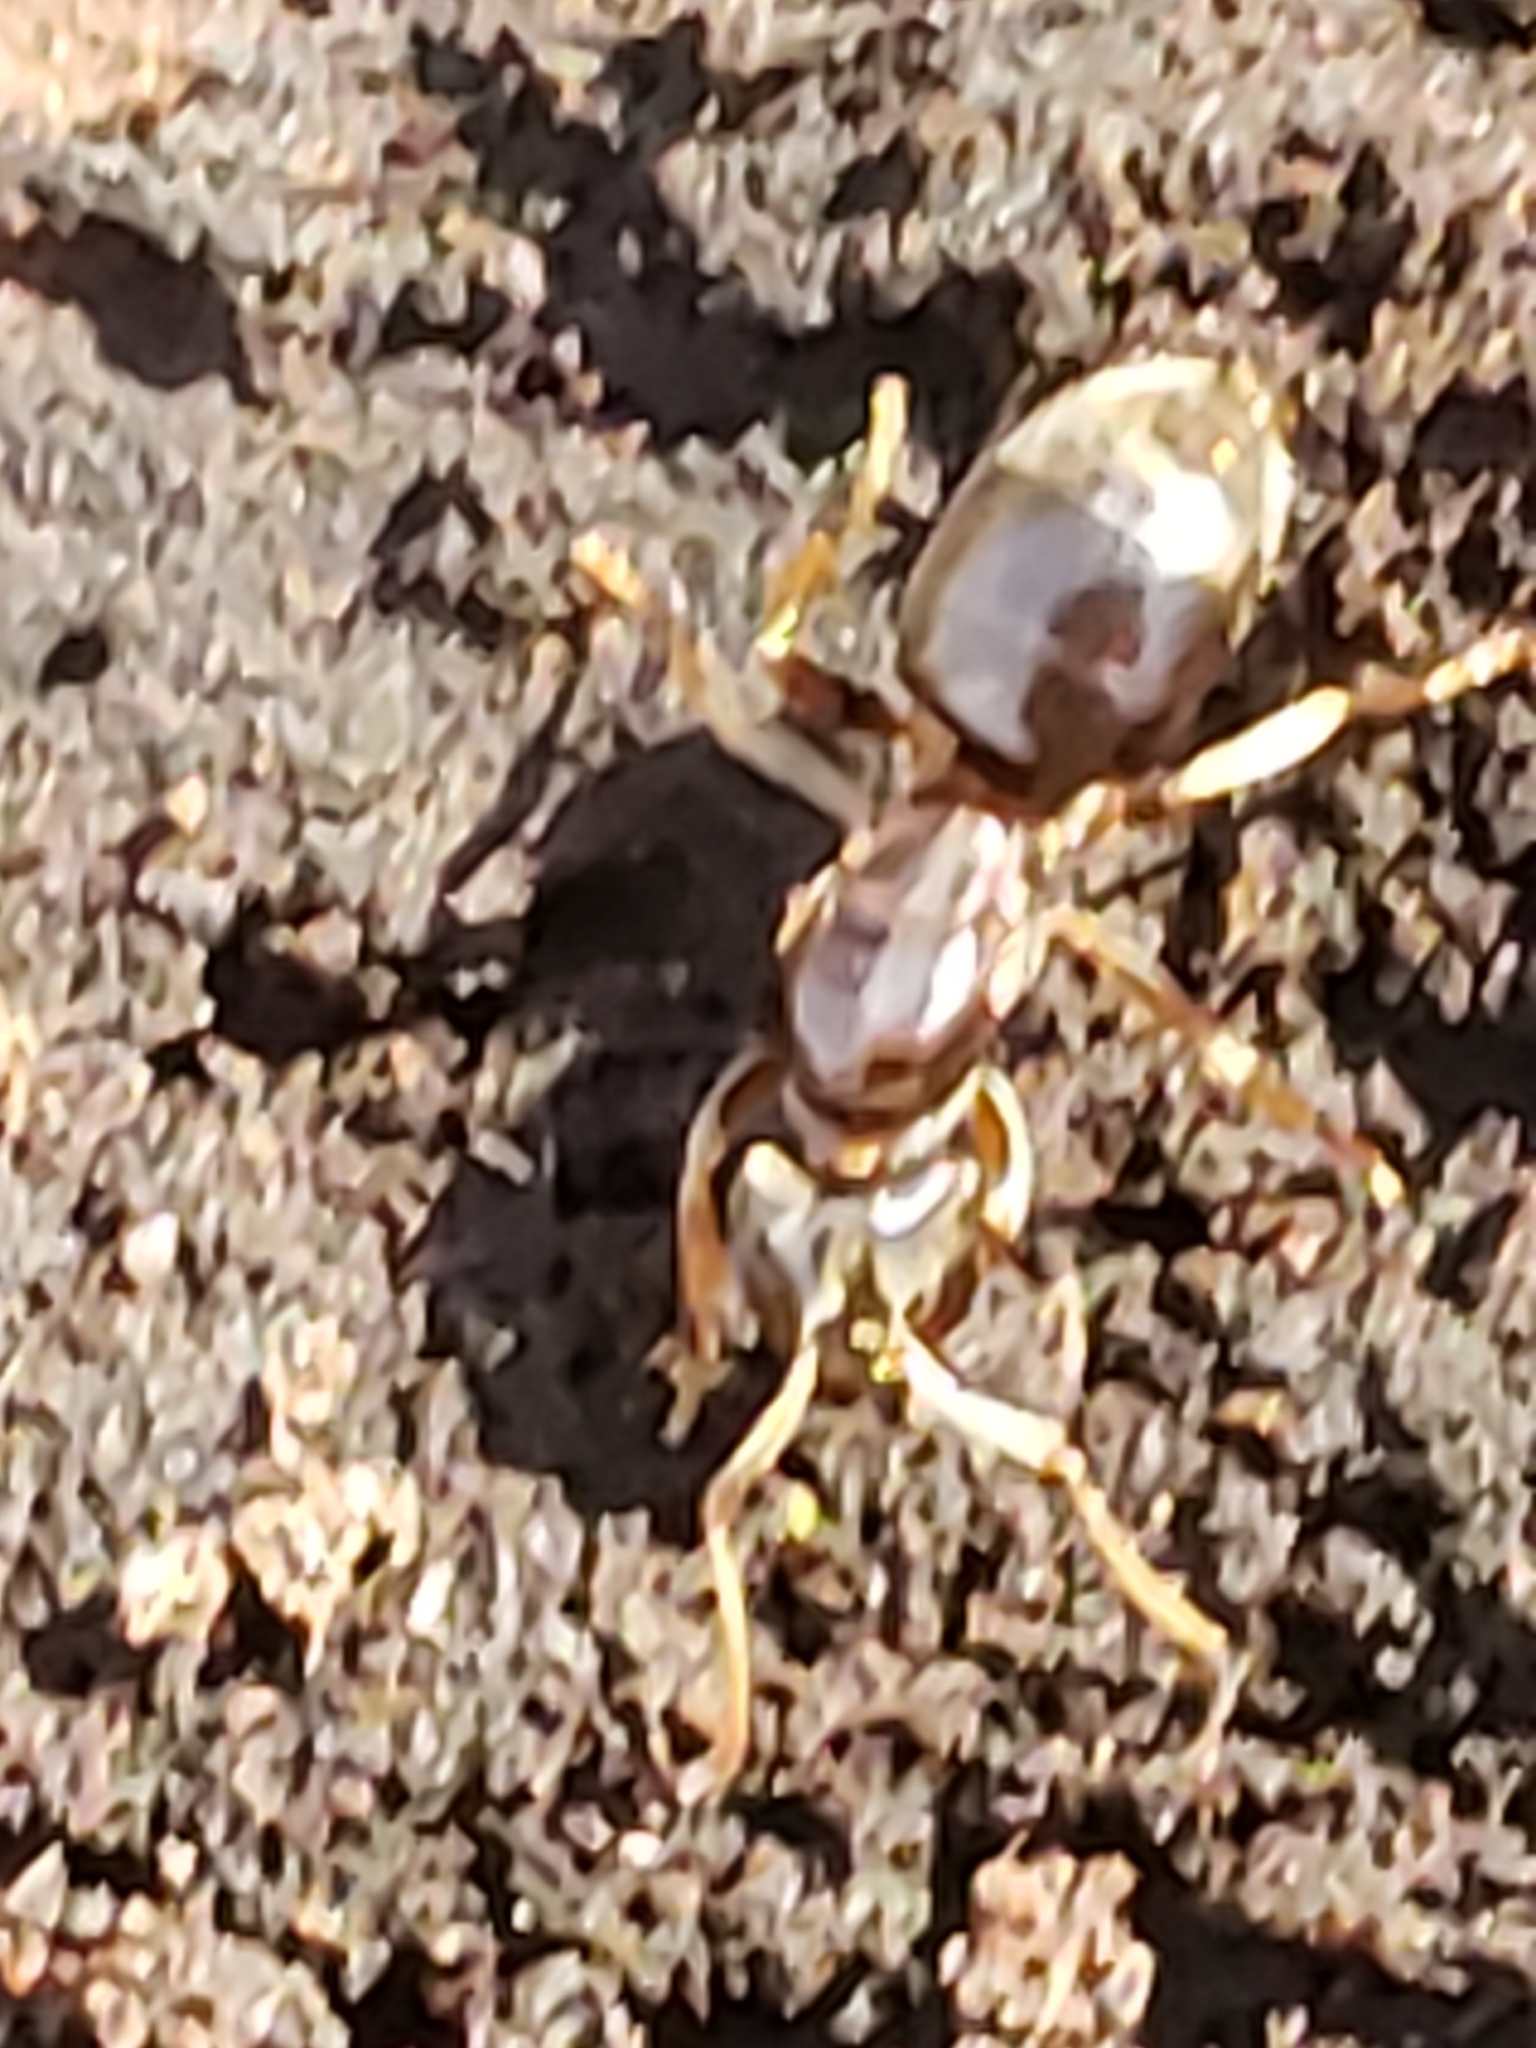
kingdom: Animalia
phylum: Arthropoda
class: Insecta
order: Hymenoptera
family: Formicidae
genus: Lasius
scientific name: Lasius aphidicola
